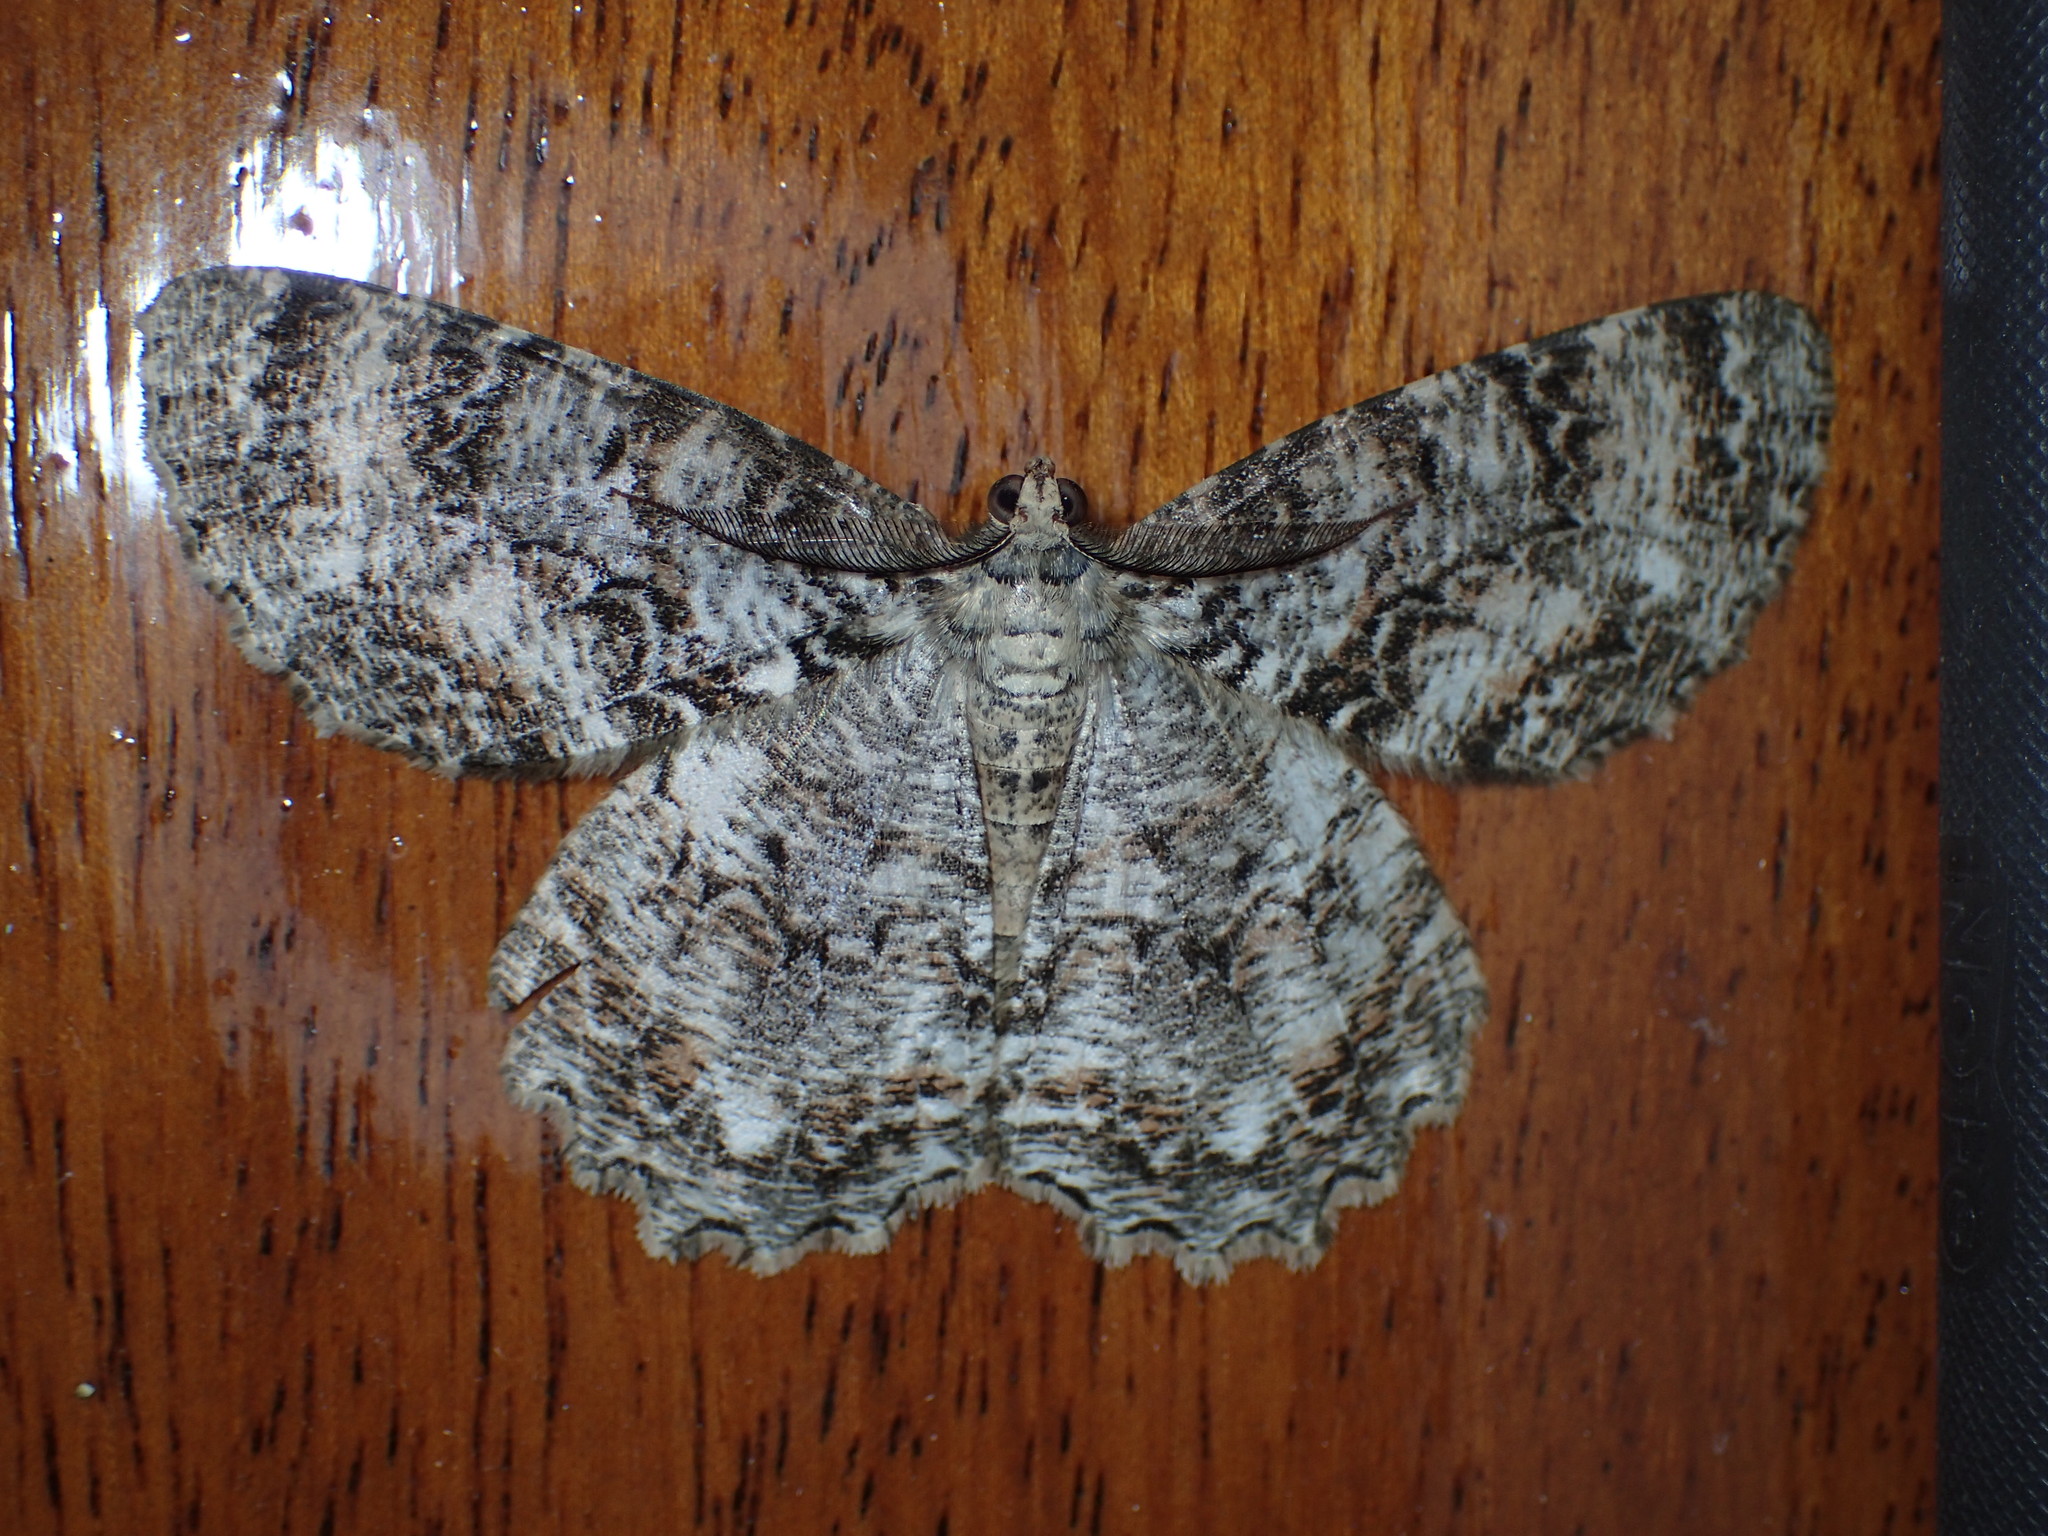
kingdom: Animalia
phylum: Arthropoda
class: Insecta
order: Lepidoptera
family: Geometridae
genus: Epimecis
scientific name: Epimecis hortaria
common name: Tulip-tree beauty
